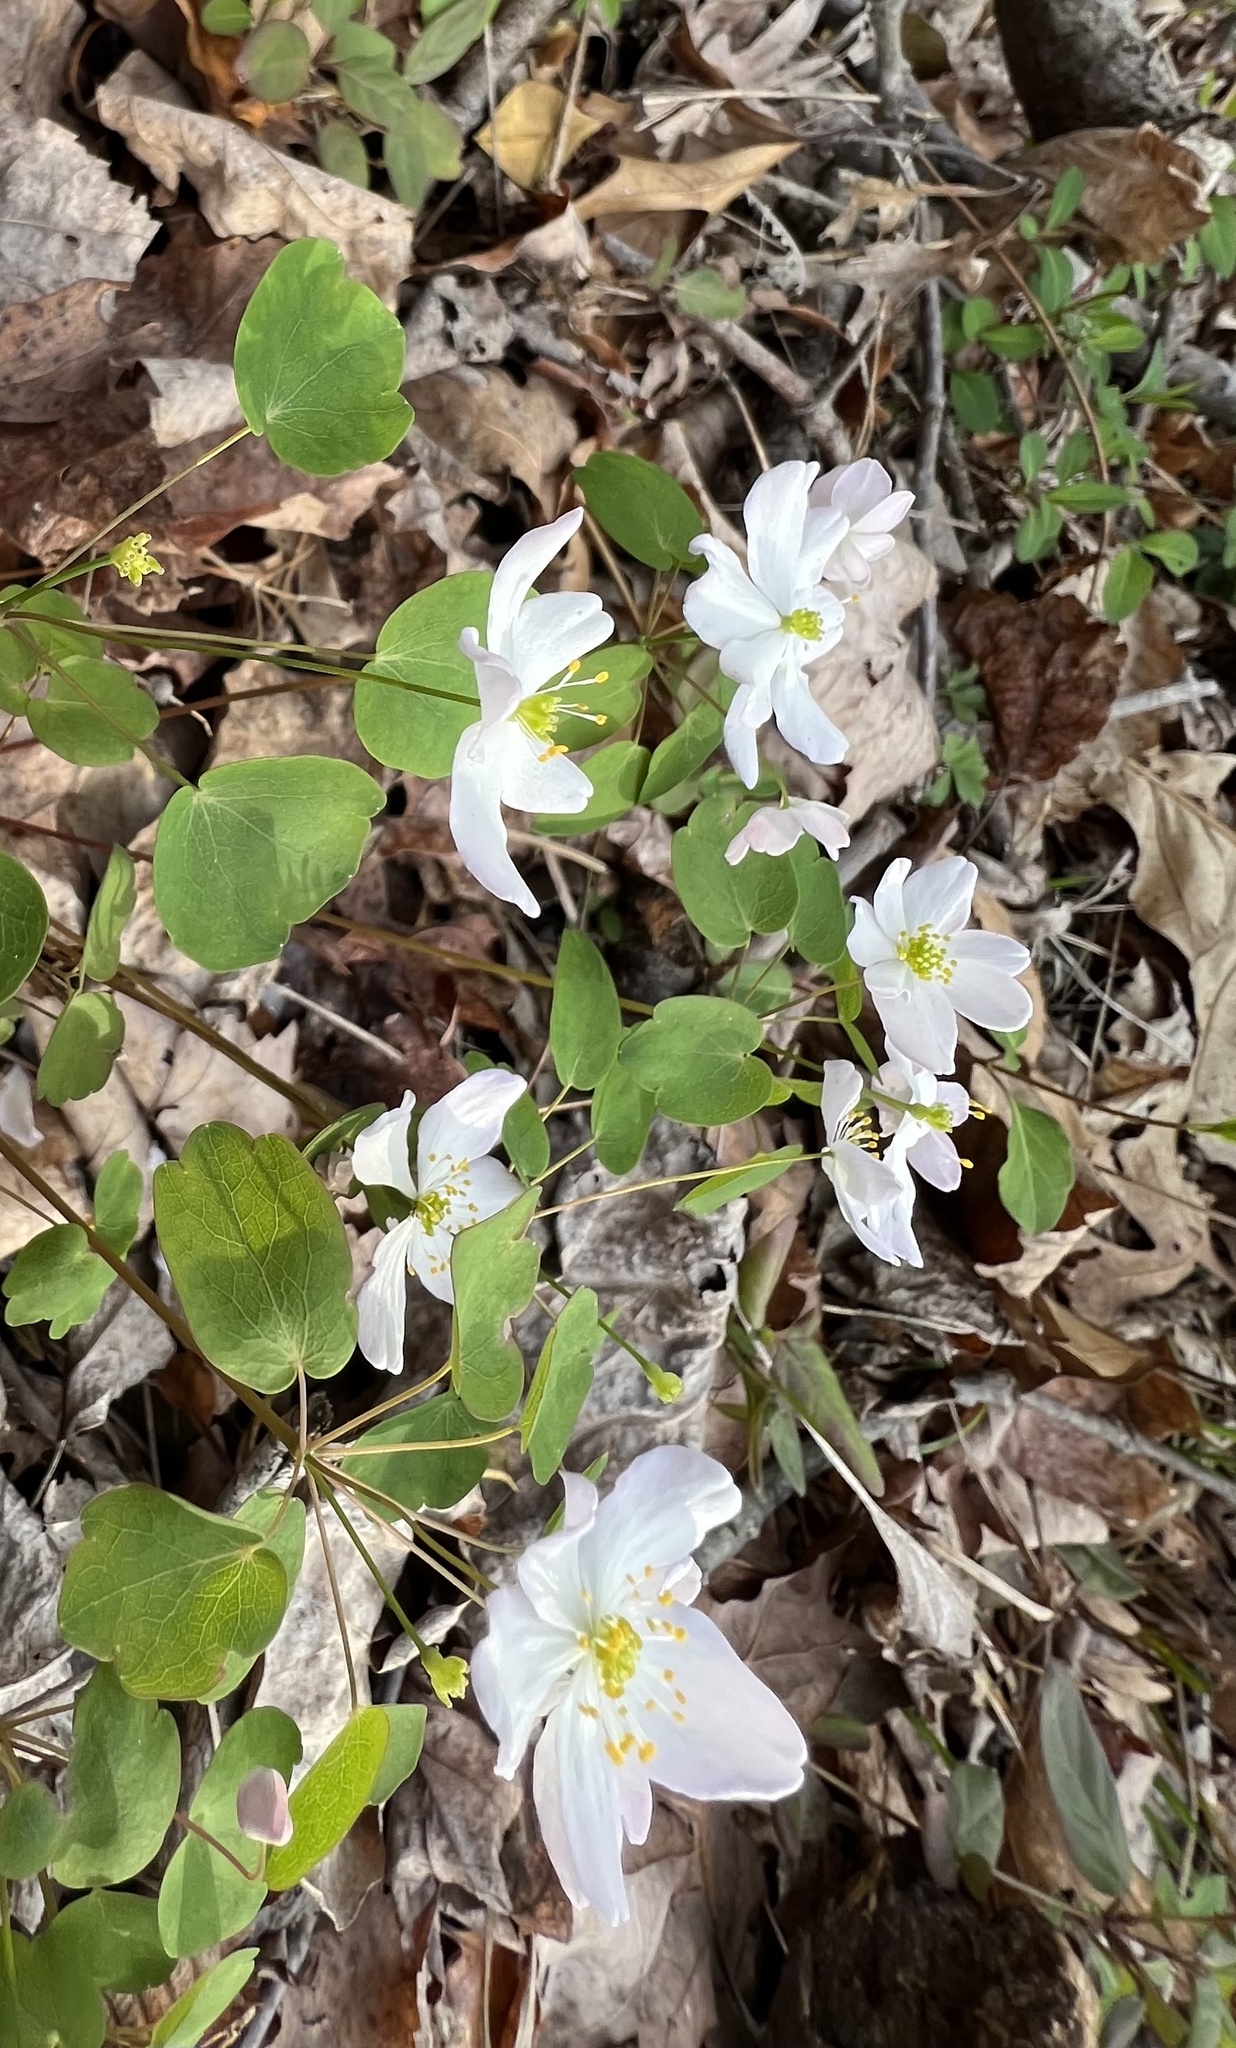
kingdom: Plantae
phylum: Tracheophyta
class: Magnoliopsida
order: Ranunculales
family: Ranunculaceae
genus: Thalictrum
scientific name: Thalictrum thalictroides
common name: Rue-anemone
